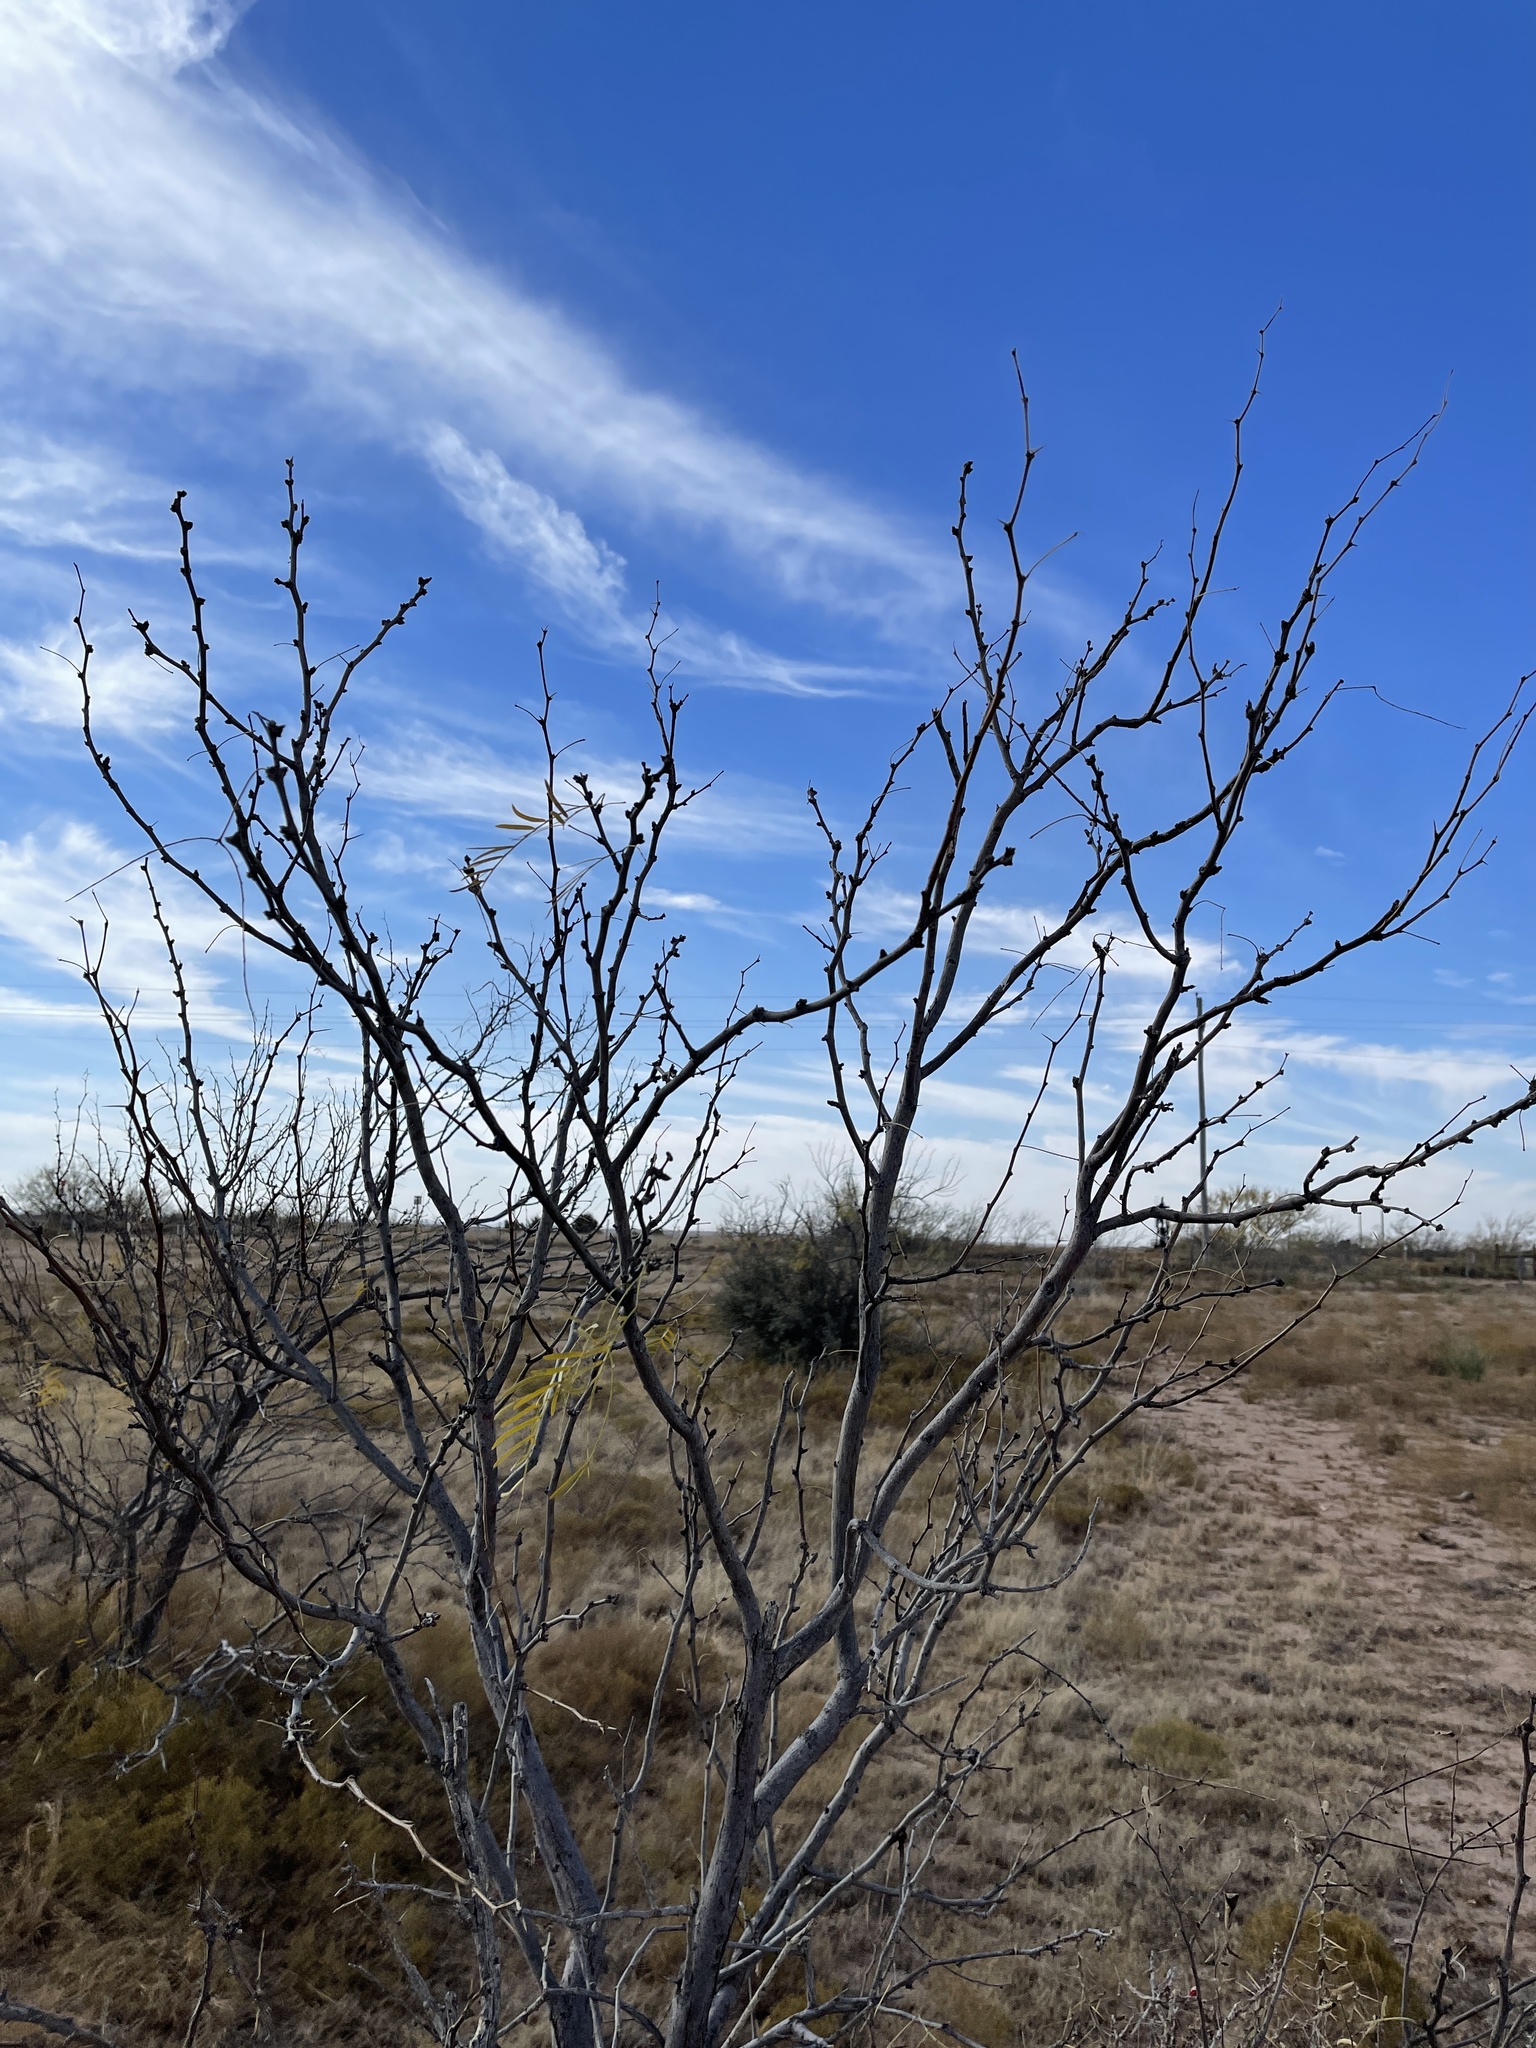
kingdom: Plantae
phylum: Tracheophyta
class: Magnoliopsida
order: Fabales
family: Fabaceae
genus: Prosopis
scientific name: Prosopis glandulosa
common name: Honey mesquite
